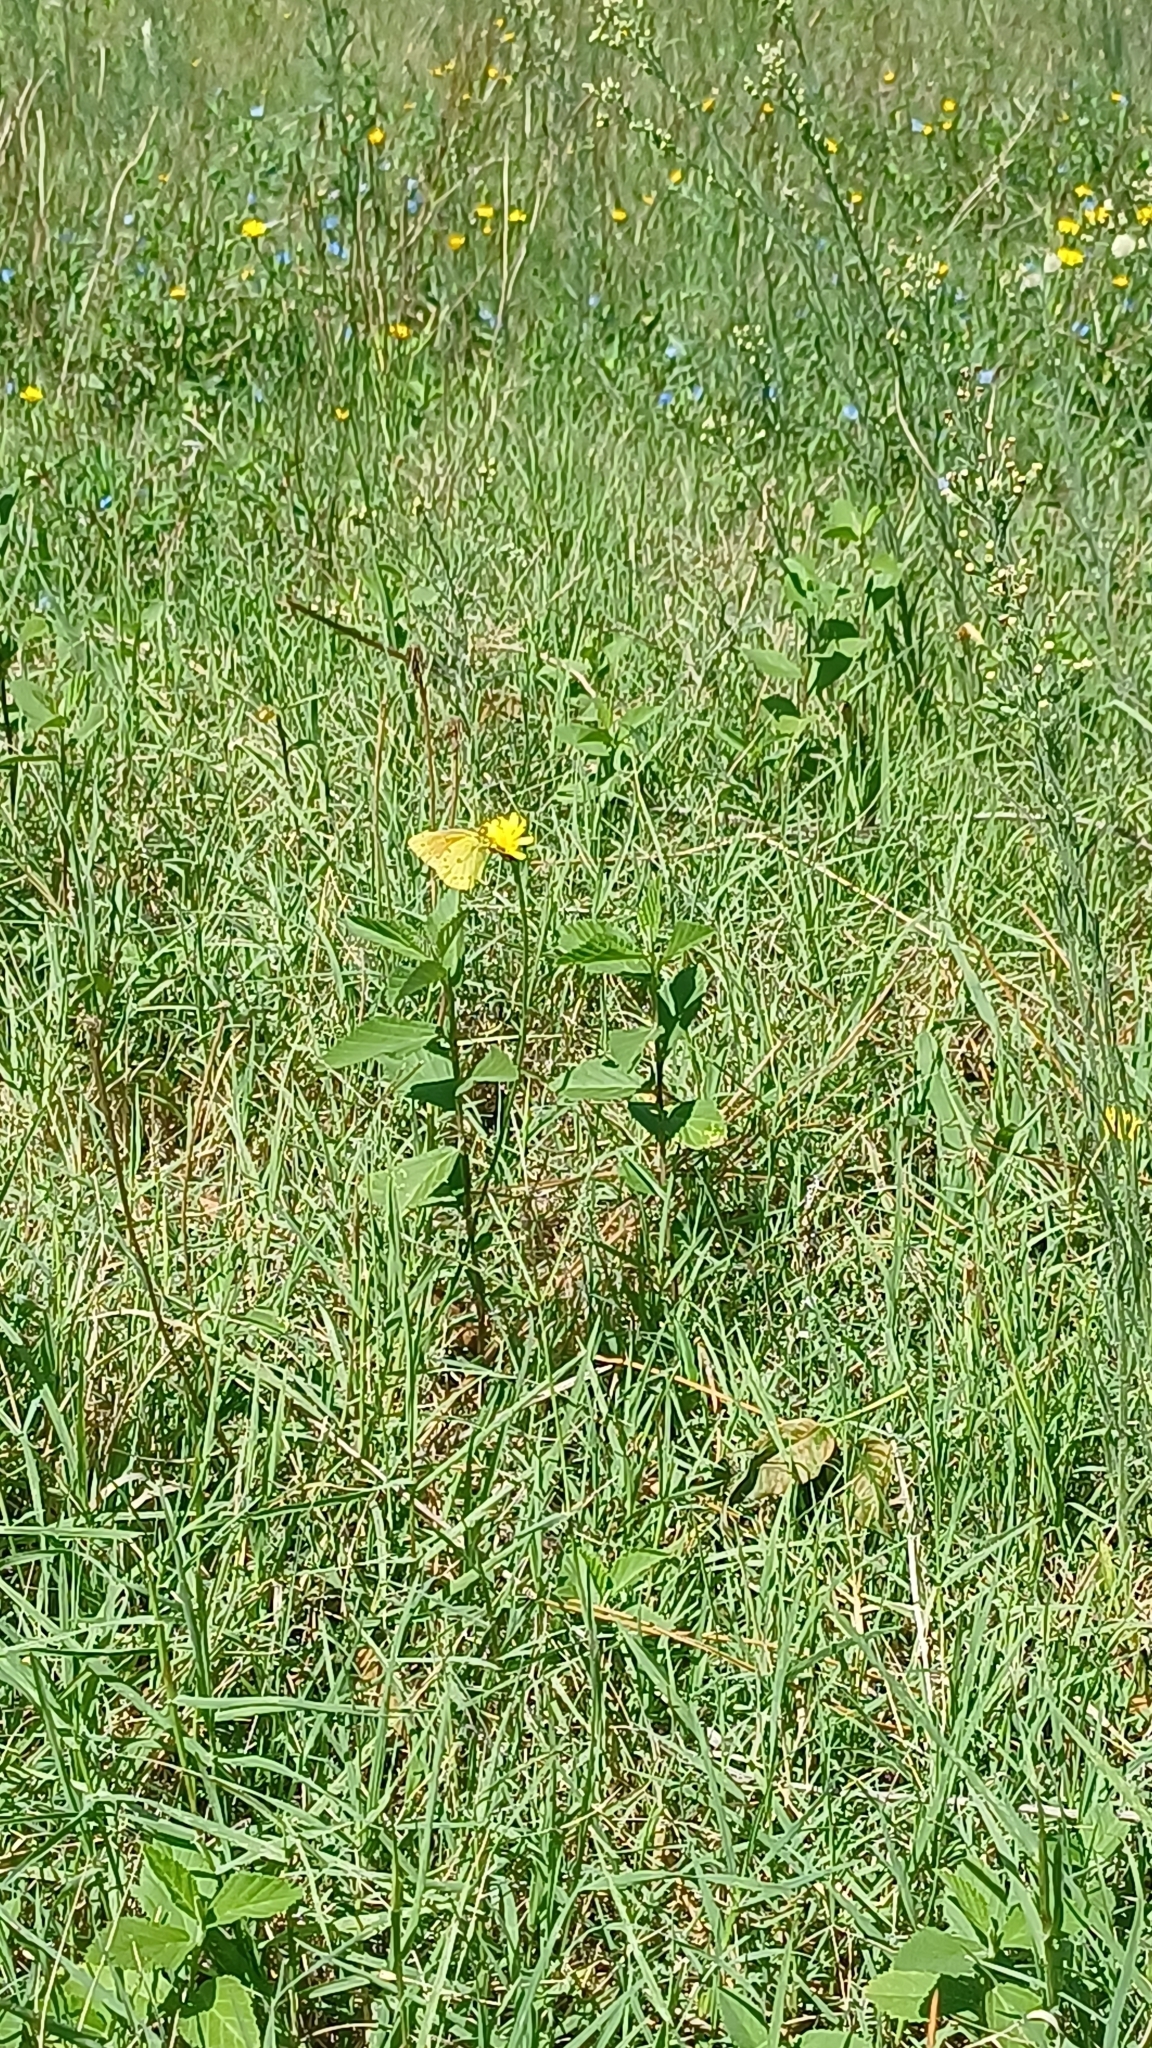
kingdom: Animalia
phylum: Arthropoda
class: Insecta
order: Lepidoptera
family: Pieridae
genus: Colias
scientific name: Colias lesbia
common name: Lesbia clouded yellow
